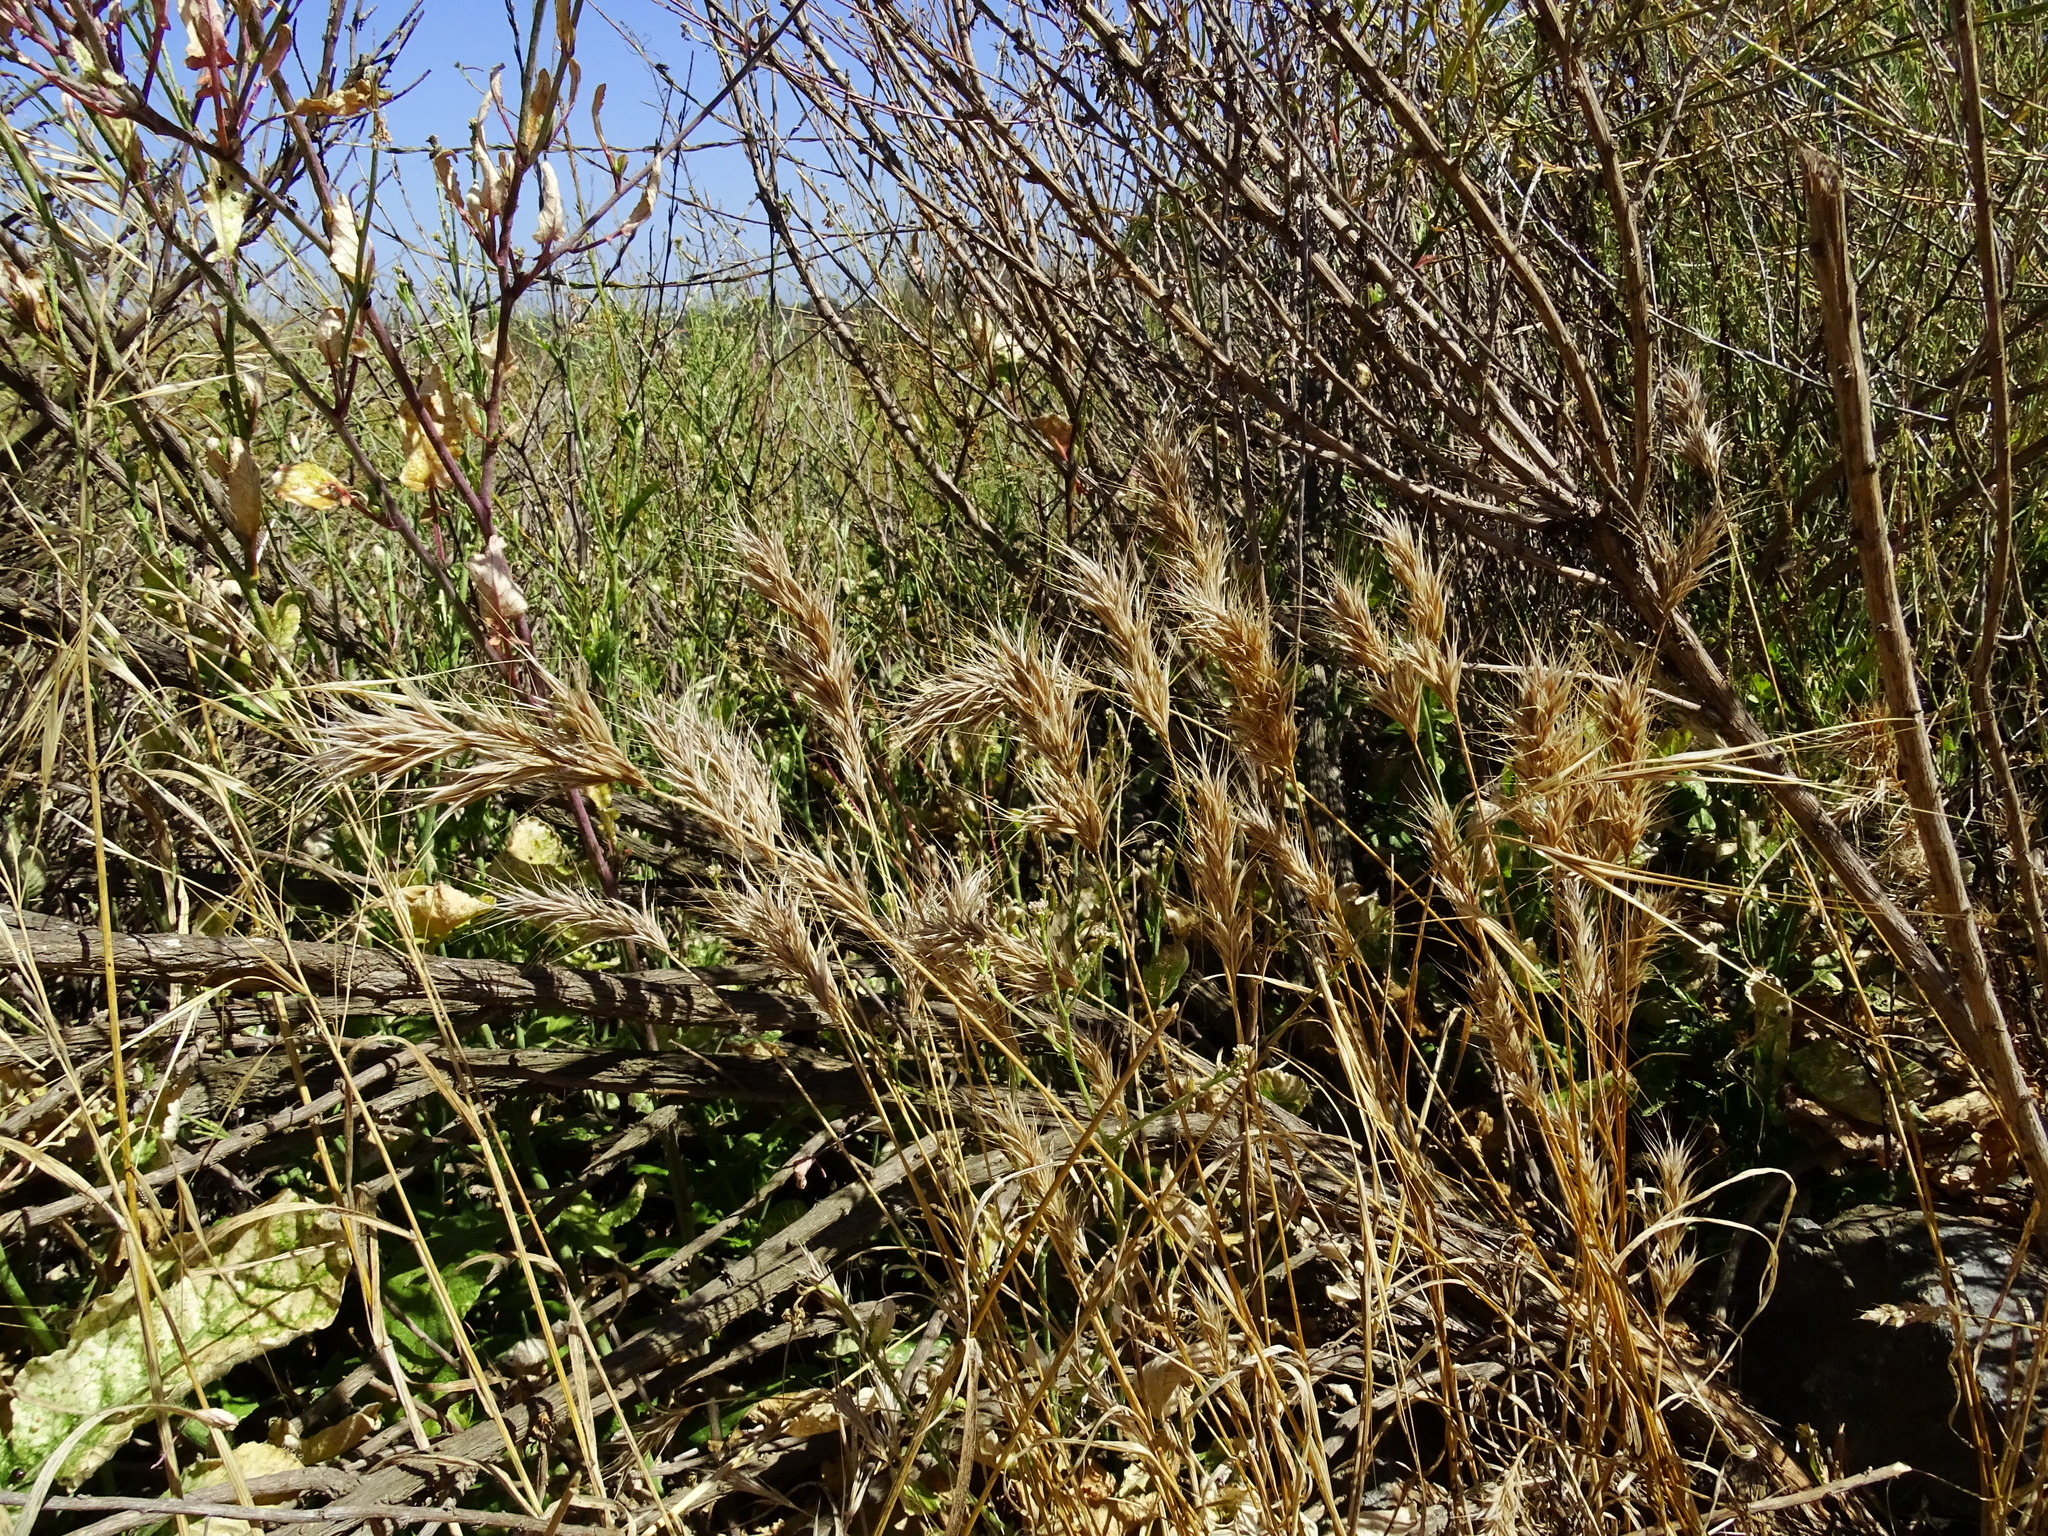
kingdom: Plantae
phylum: Tracheophyta
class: Liliopsida
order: Poales
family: Poaceae
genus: Bromus
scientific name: Bromus madritensis
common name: Compact brome
